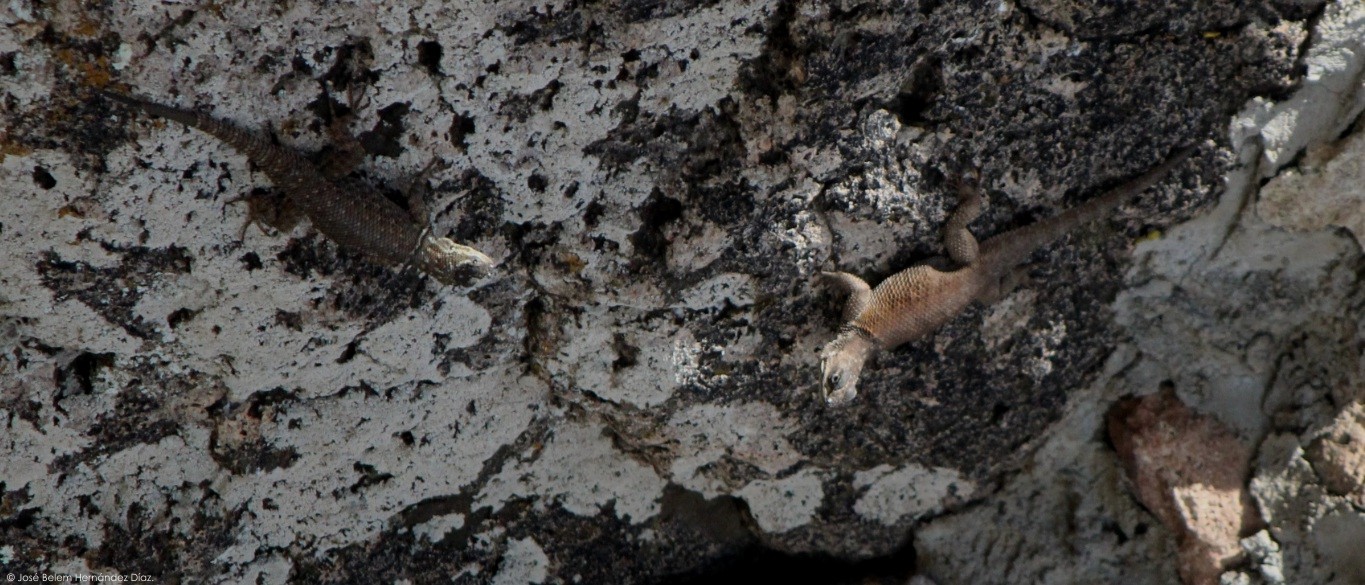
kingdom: Animalia
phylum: Chordata
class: Squamata
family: Phrynosomatidae
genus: Sceloporus
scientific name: Sceloporus minor
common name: Minor lizard
